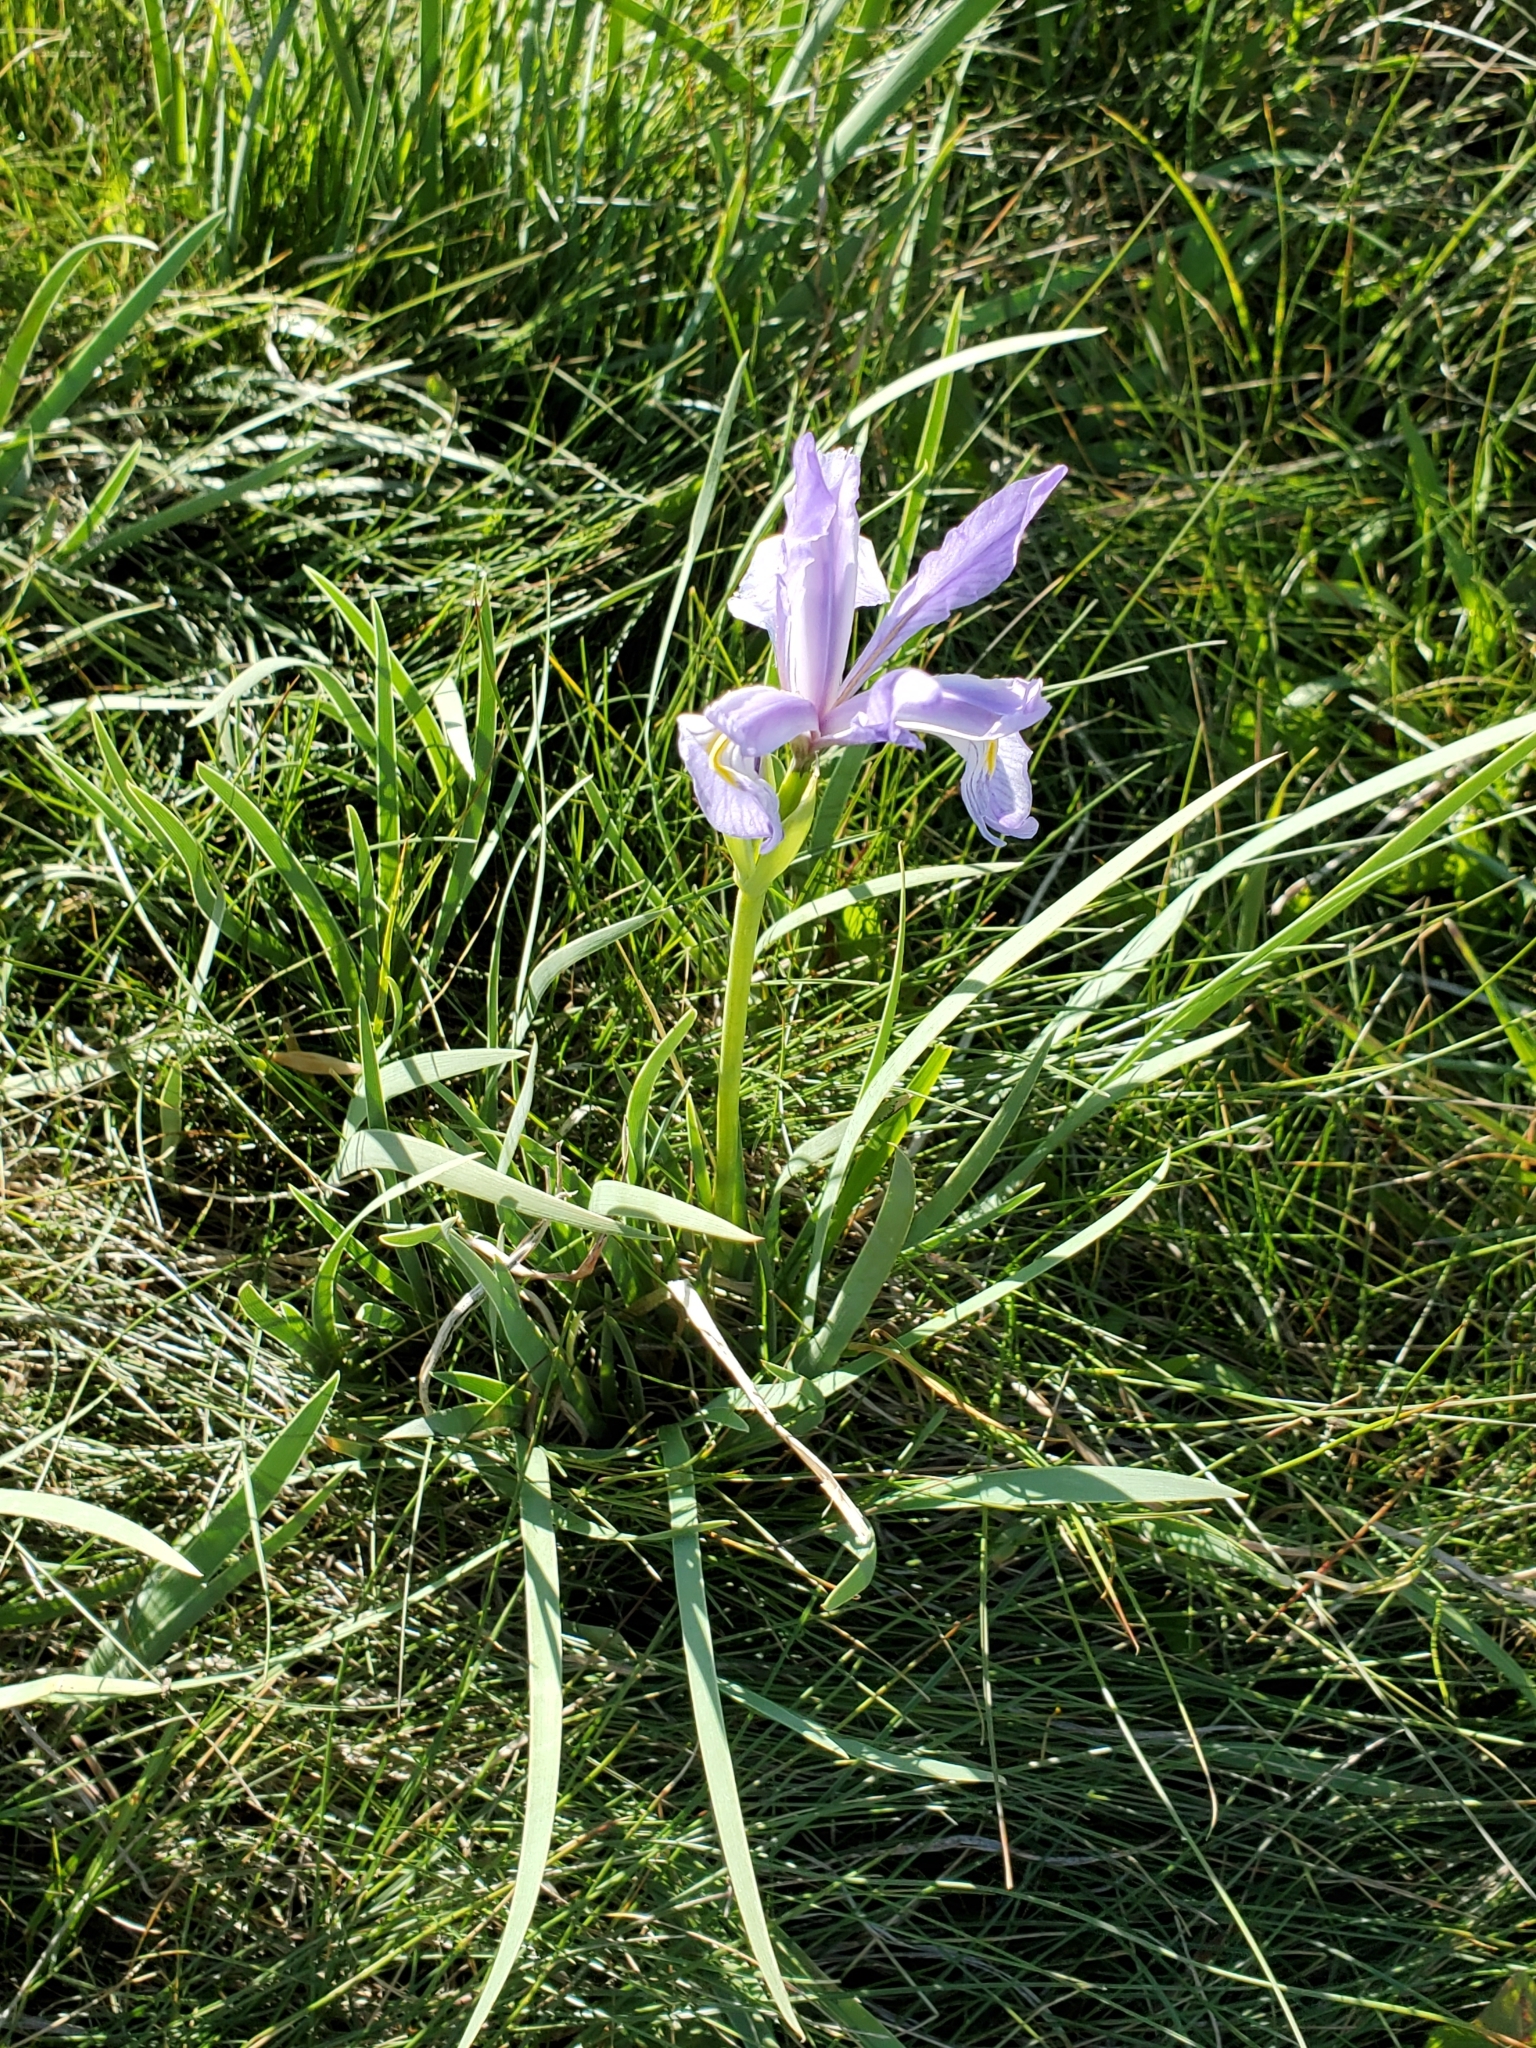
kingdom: Plantae
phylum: Tracheophyta
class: Liliopsida
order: Asparagales
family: Iridaceae
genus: Iris
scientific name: Iris missouriensis
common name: Rocky mountain iris
